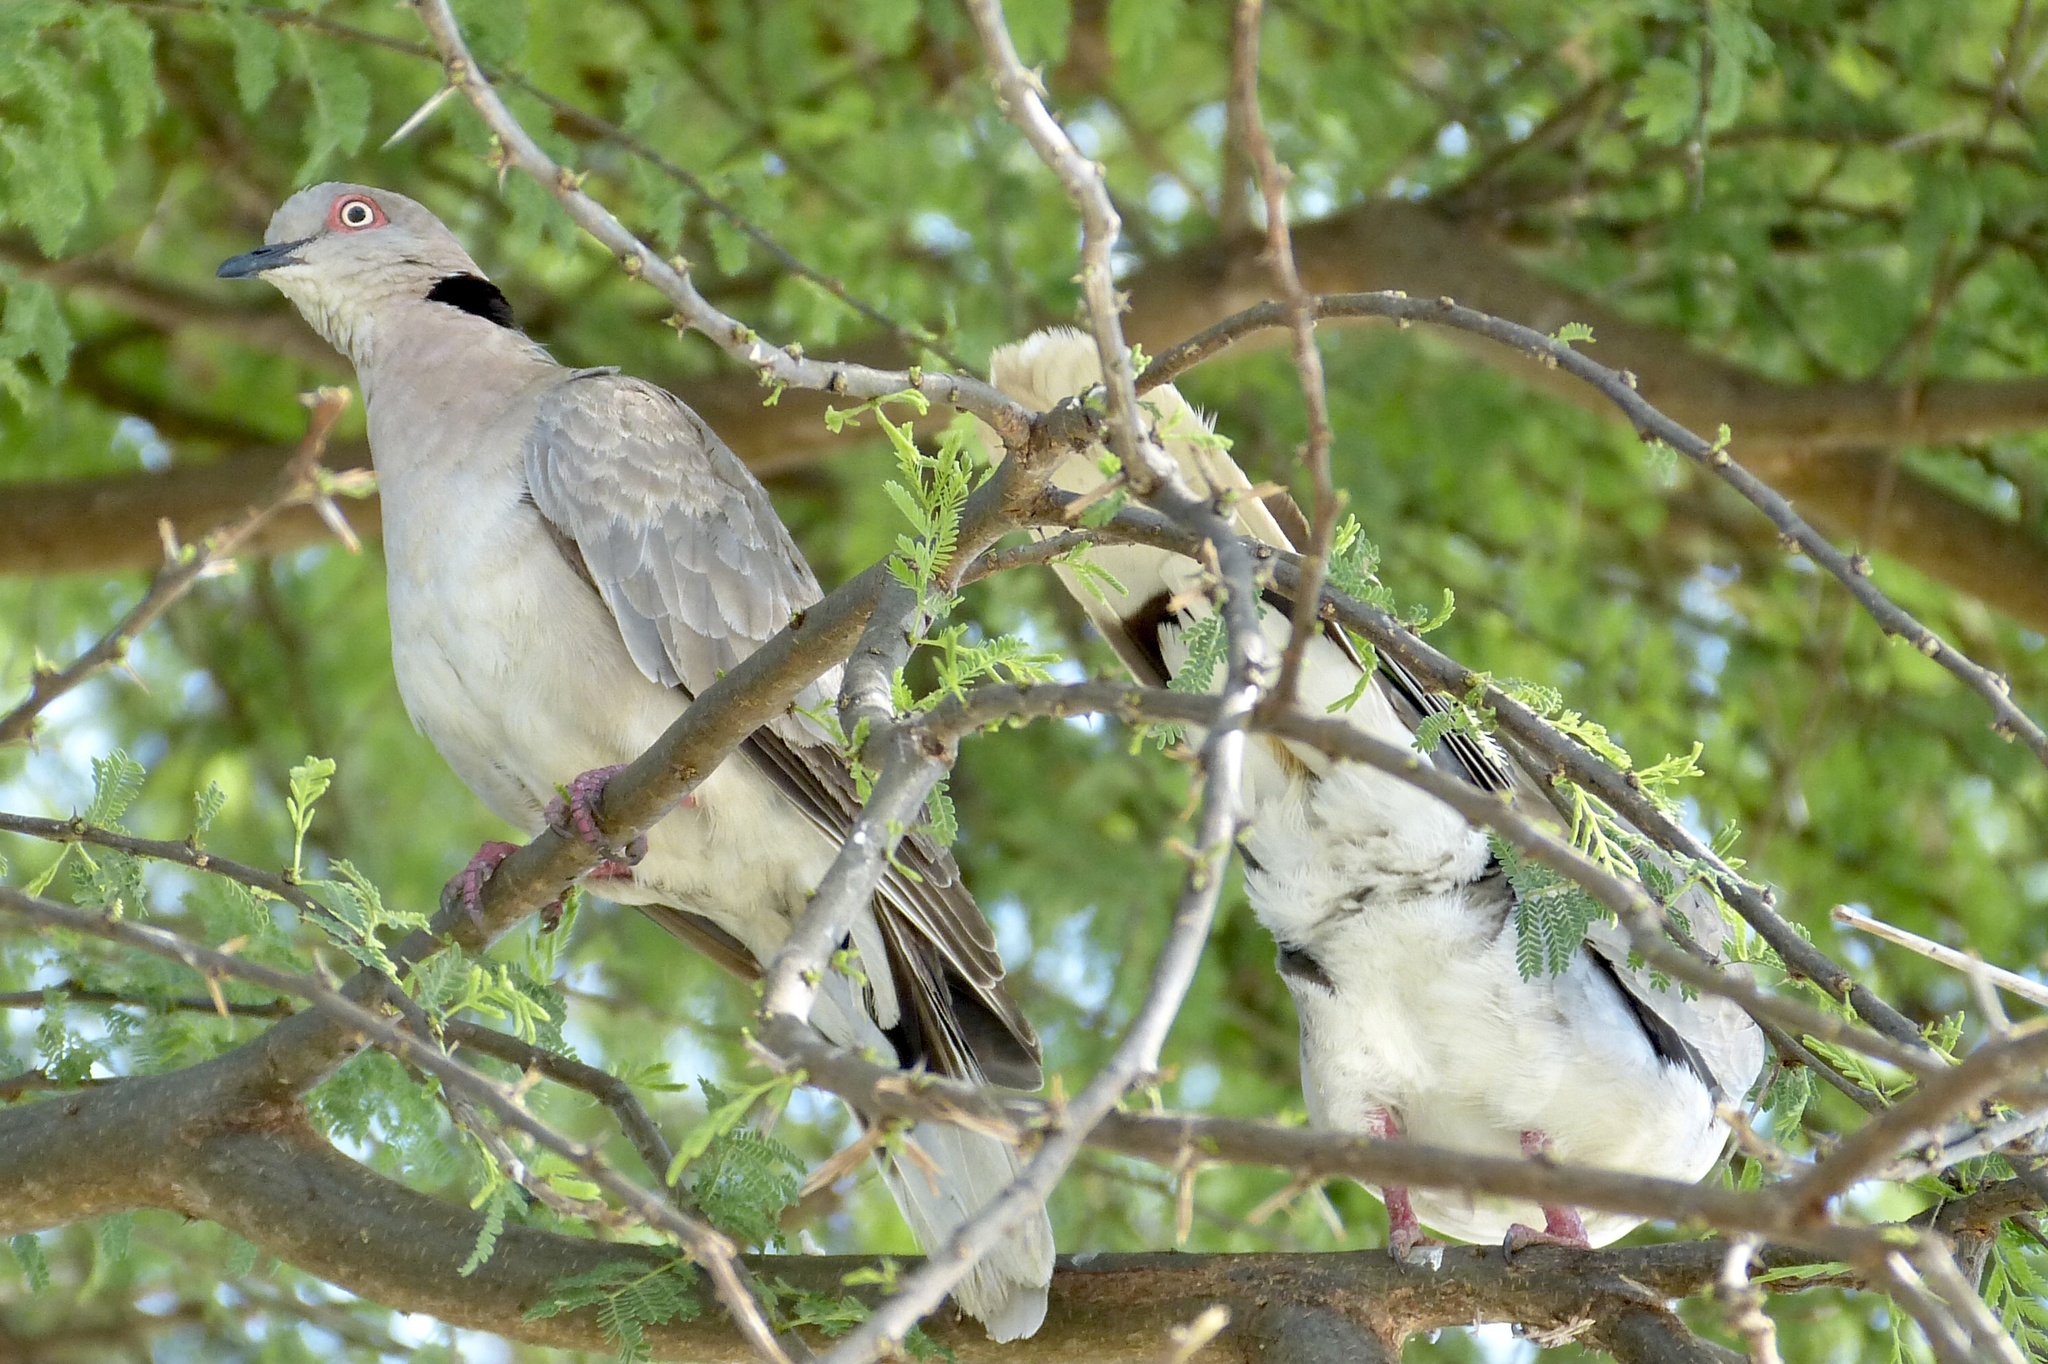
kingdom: Animalia
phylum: Chordata
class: Aves
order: Columbiformes
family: Columbidae
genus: Streptopelia
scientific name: Streptopelia decipiens
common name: Mourning collared dove
